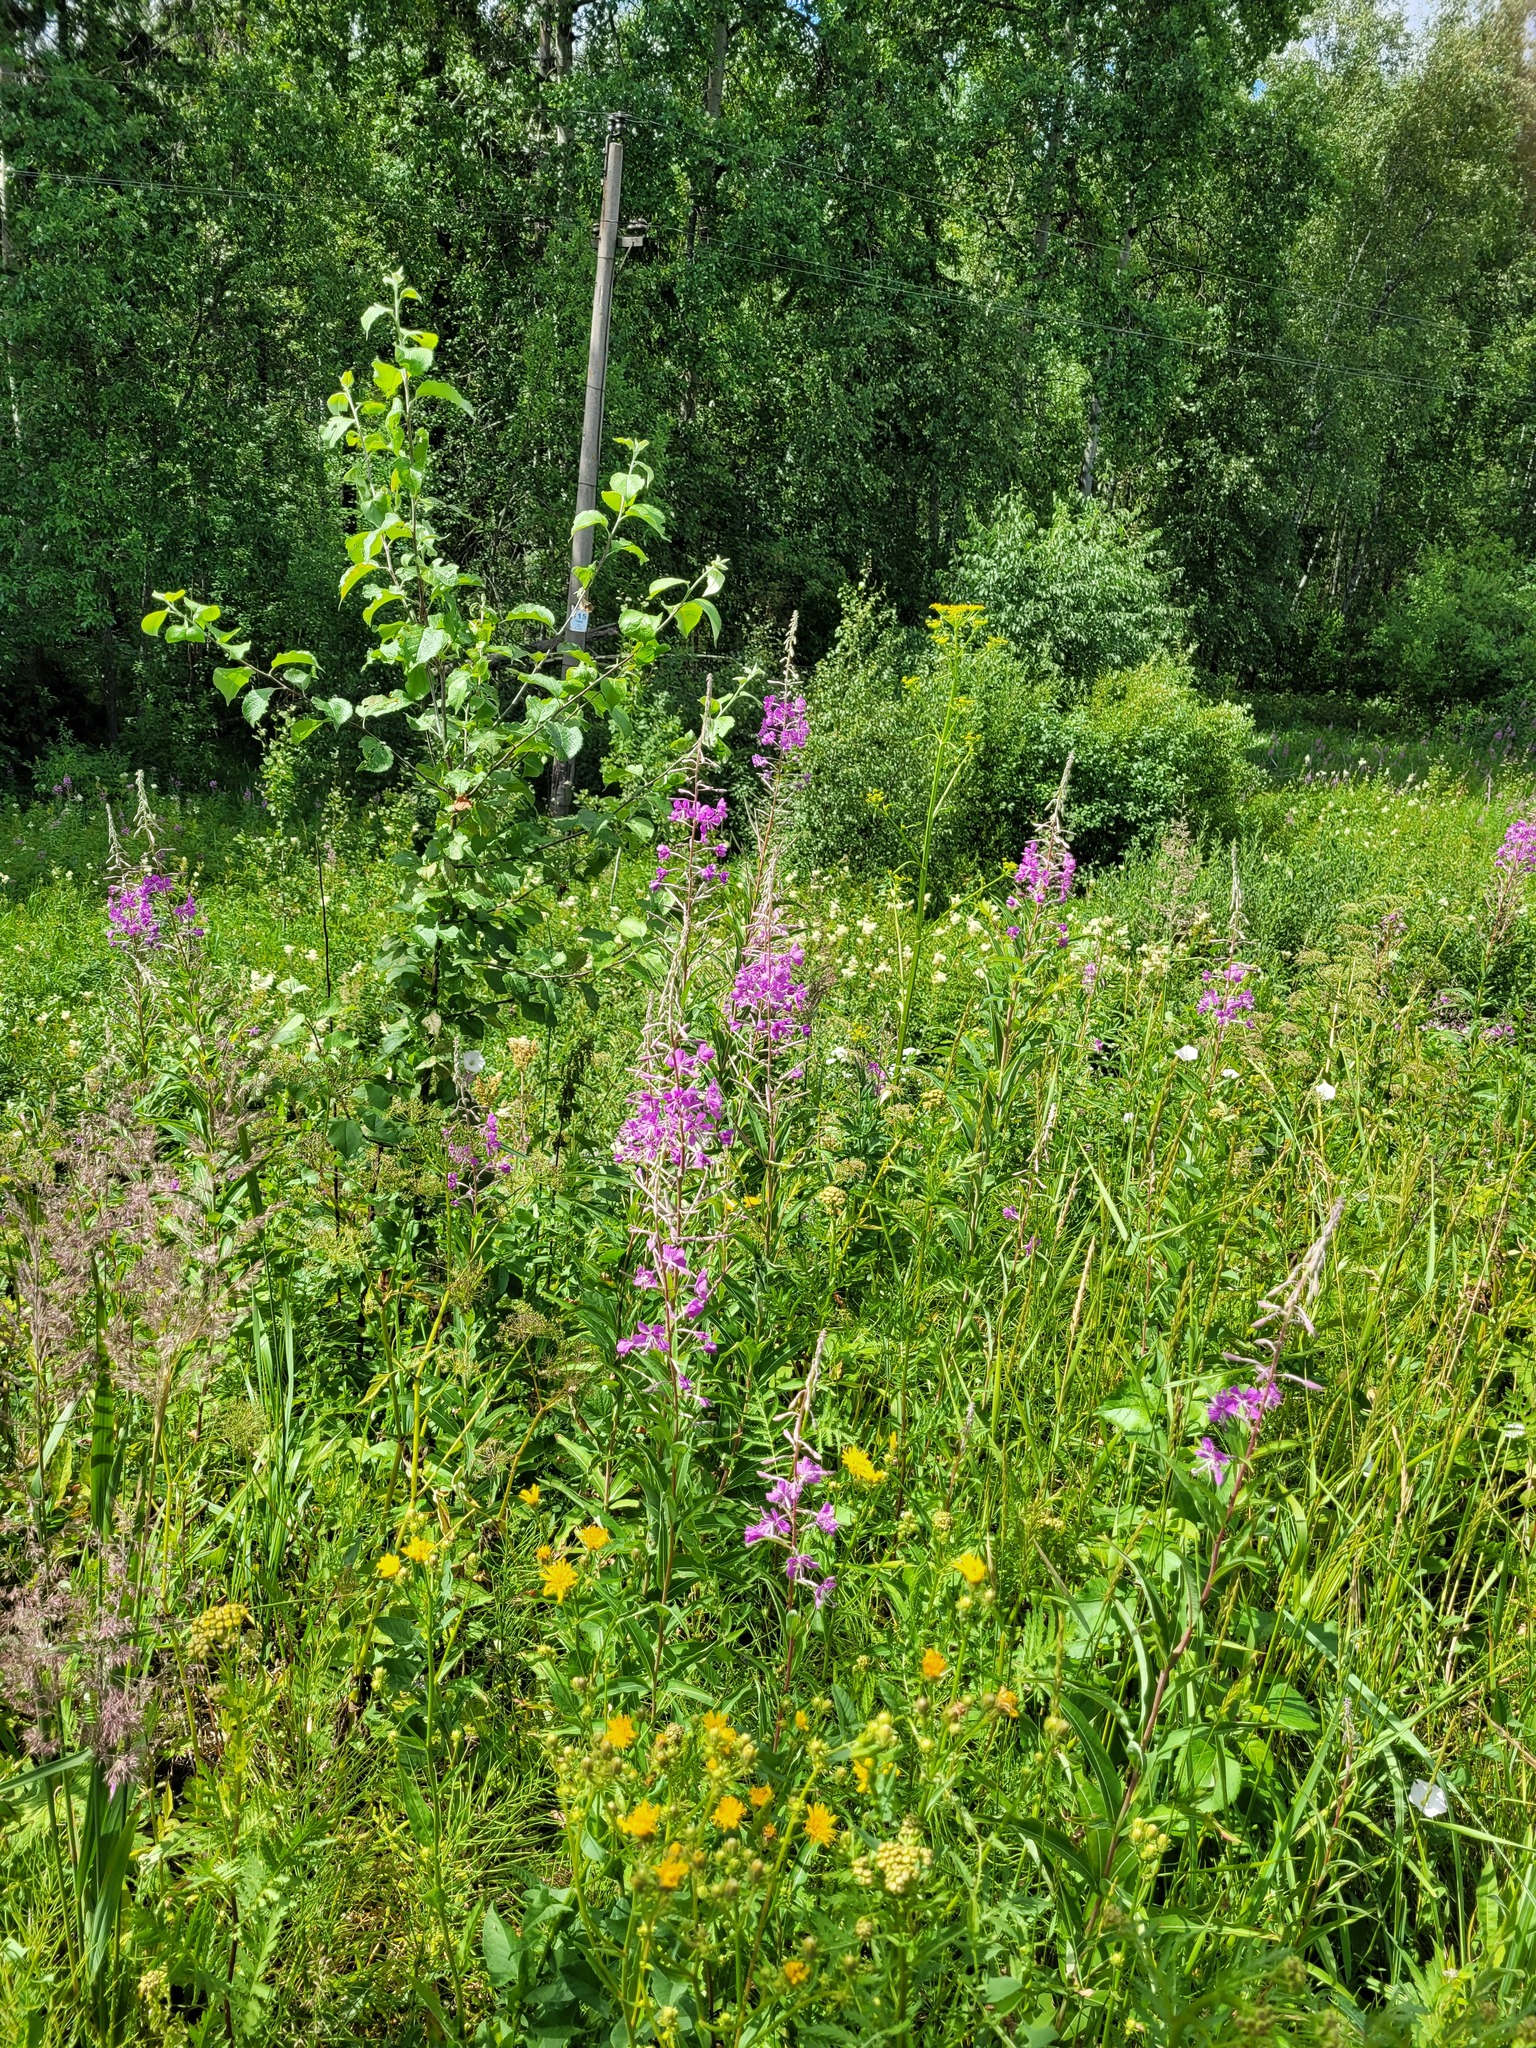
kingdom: Plantae
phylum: Tracheophyta
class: Magnoliopsida
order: Myrtales
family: Onagraceae
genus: Chamaenerion
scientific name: Chamaenerion angustifolium
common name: Fireweed
